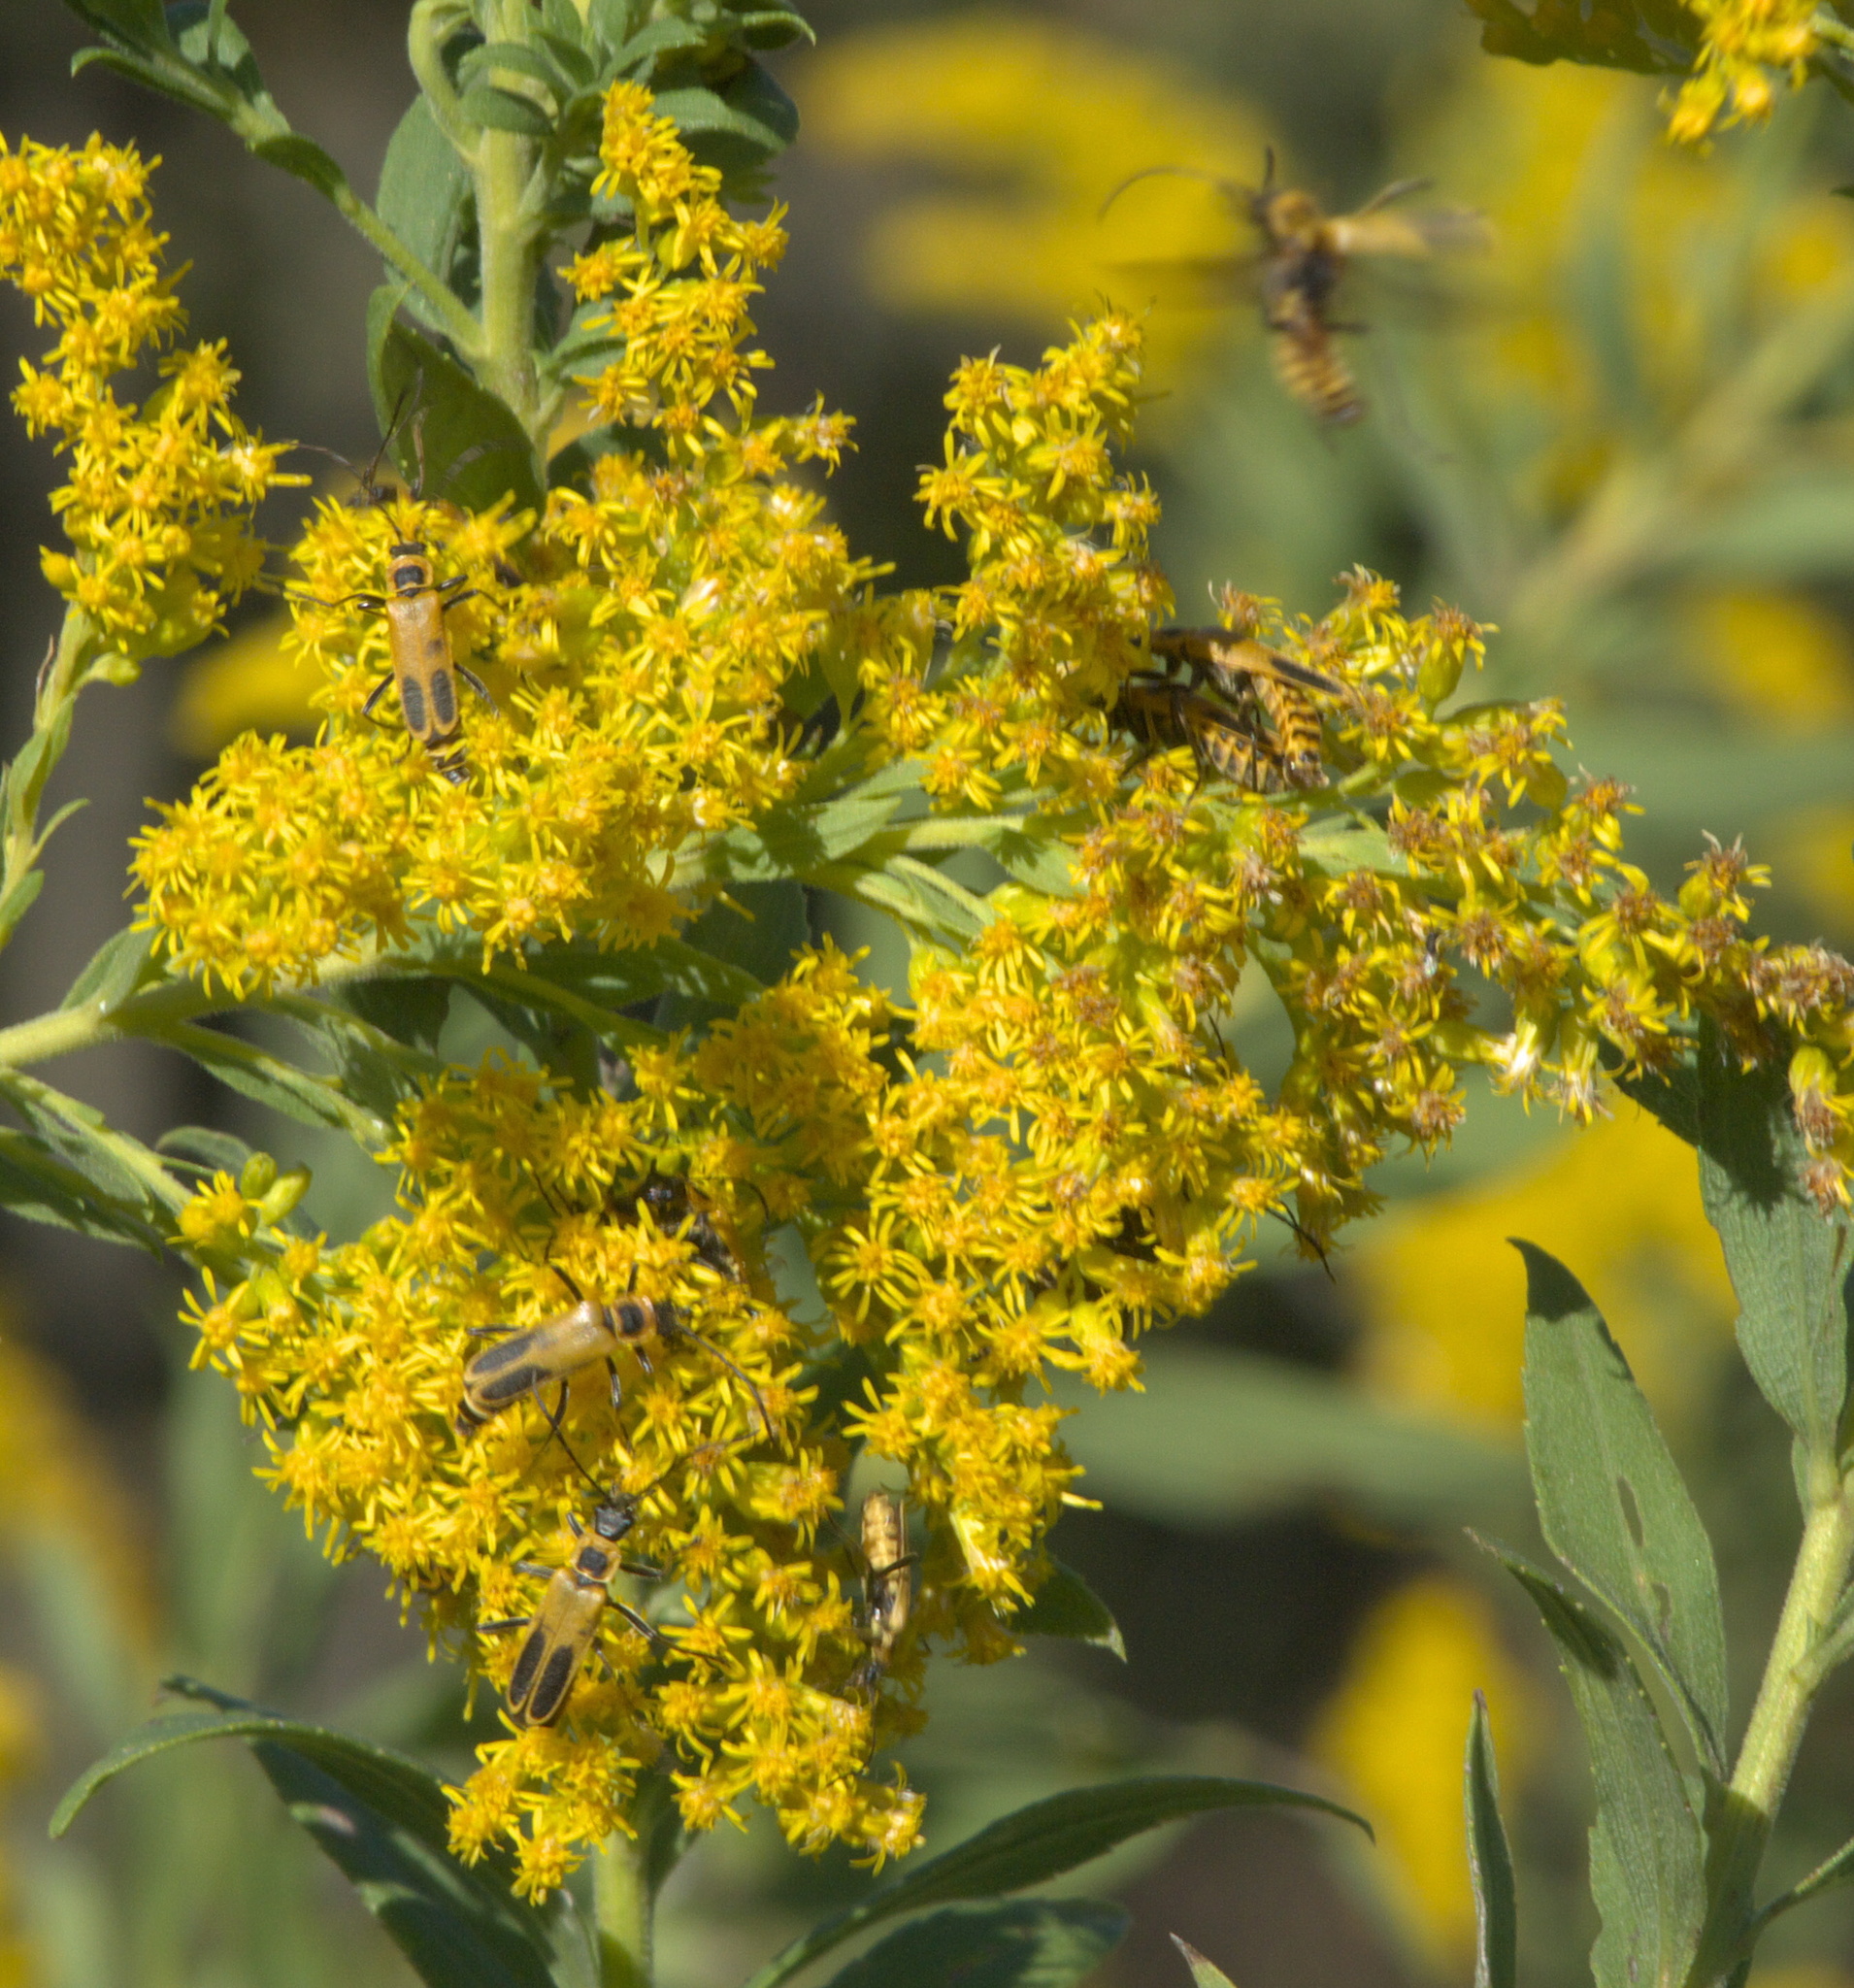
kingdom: Animalia
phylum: Arthropoda
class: Insecta
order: Coleoptera
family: Cantharidae
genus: Chauliognathus
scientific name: Chauliognathus pensylvanicus
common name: Goldenrod soldier beetle
